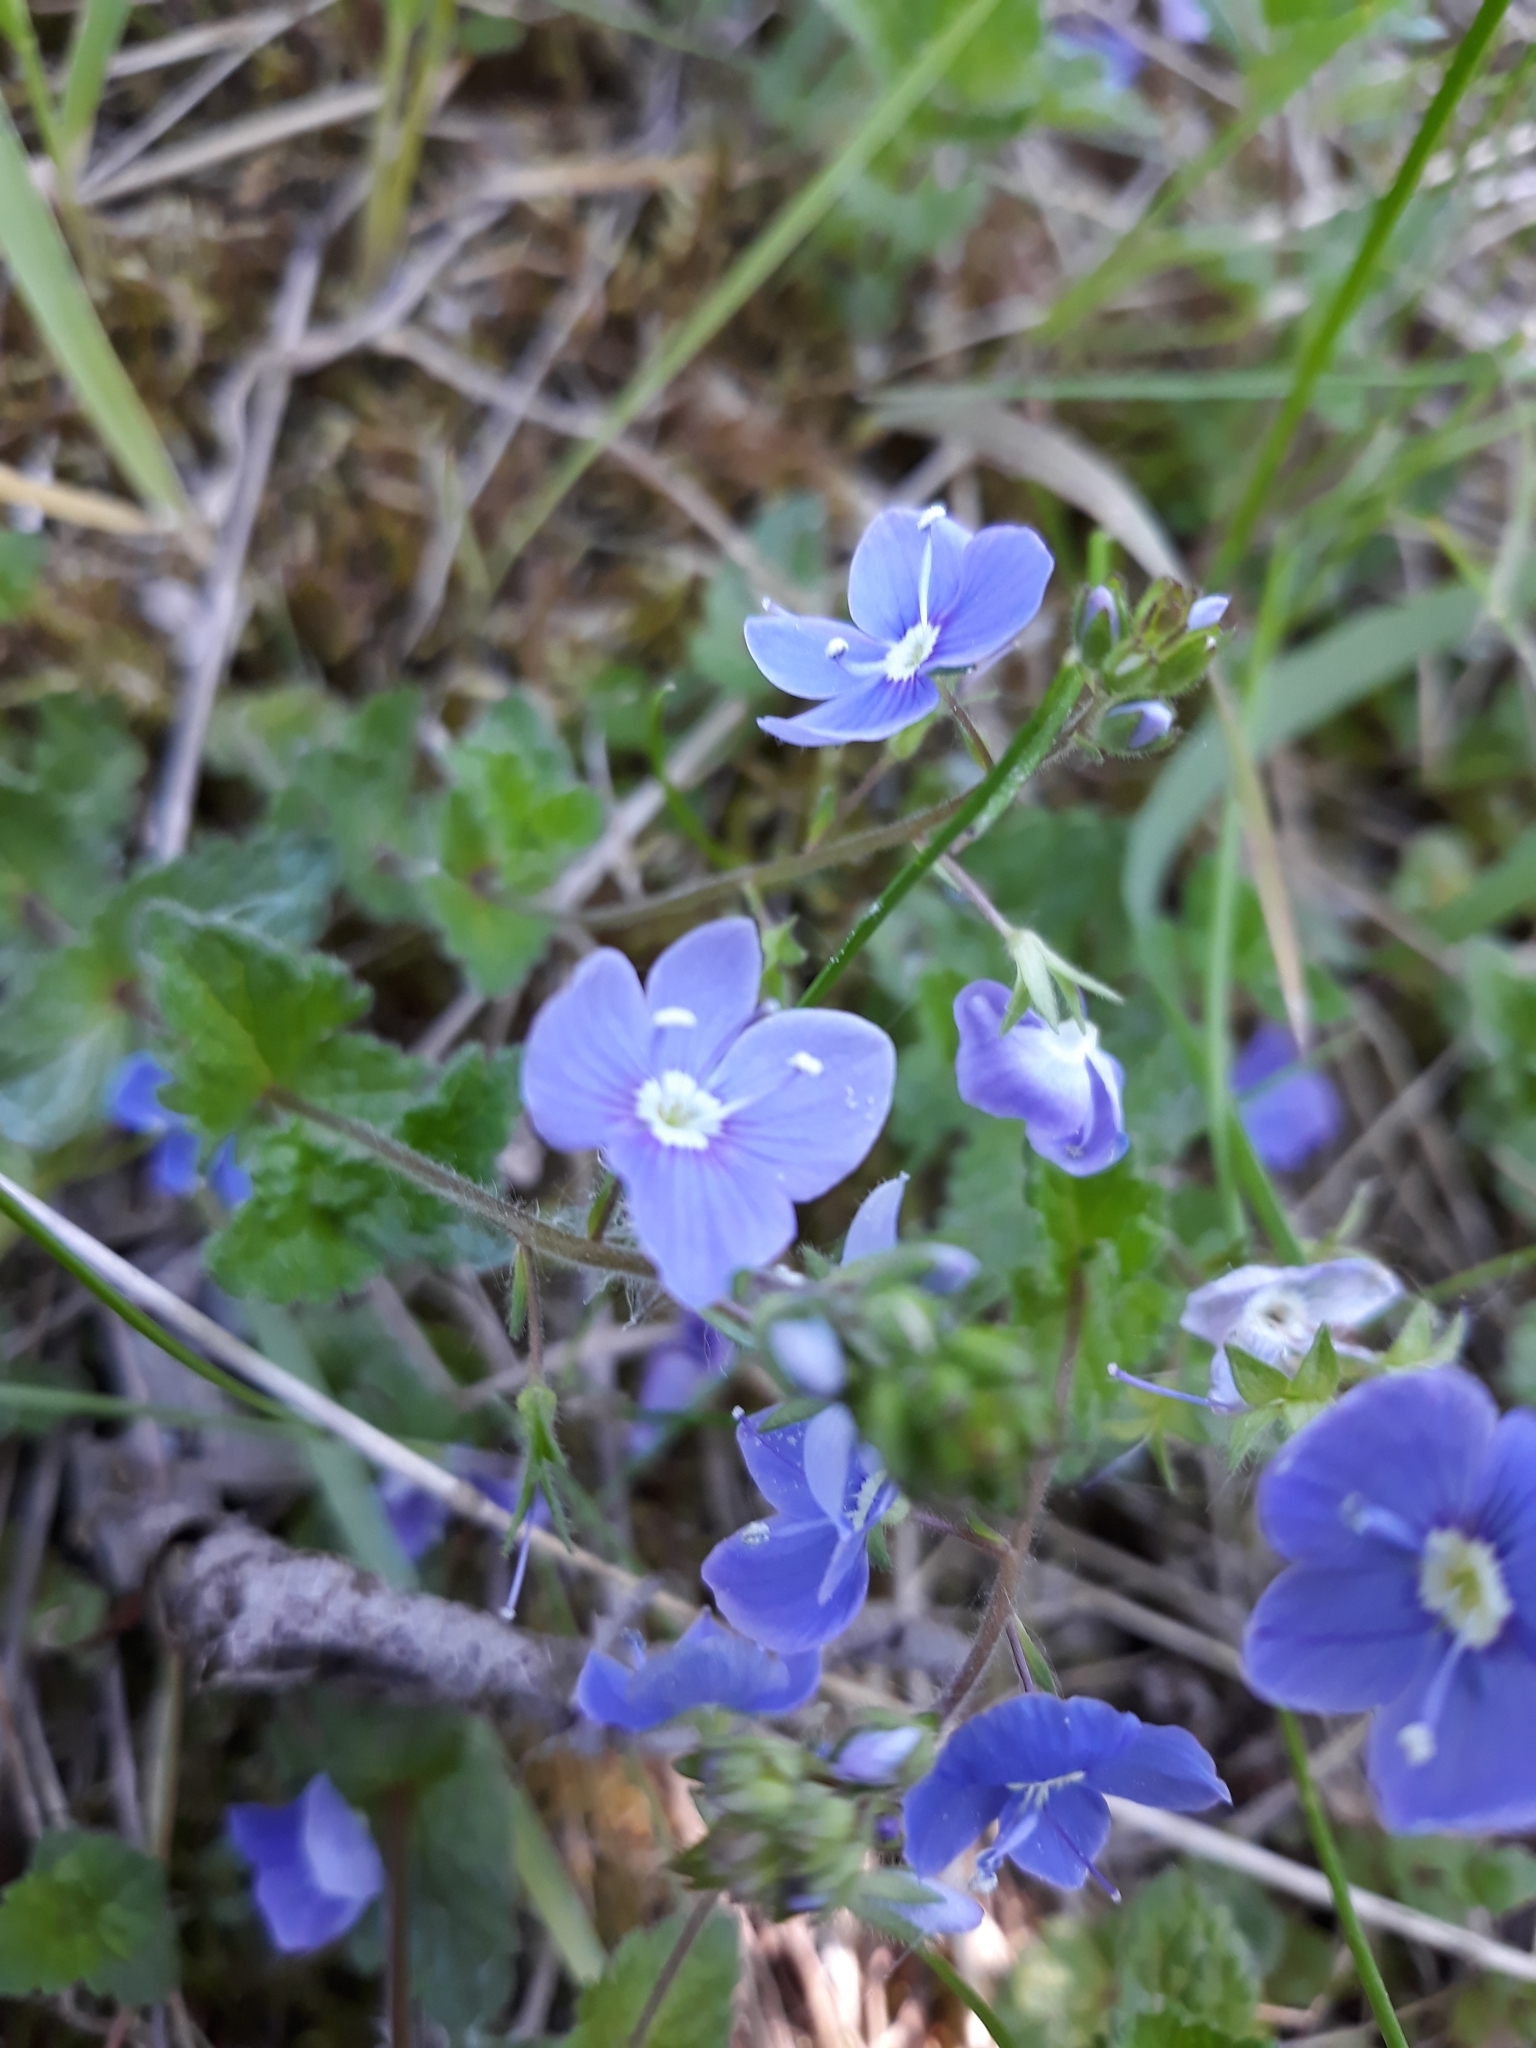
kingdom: Plantae
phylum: Tracheophyta
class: Magnoliopsida
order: Lamiales
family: Plantaginaceae
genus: Veronica
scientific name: Veronica chamaedrys
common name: Germander speedwell
